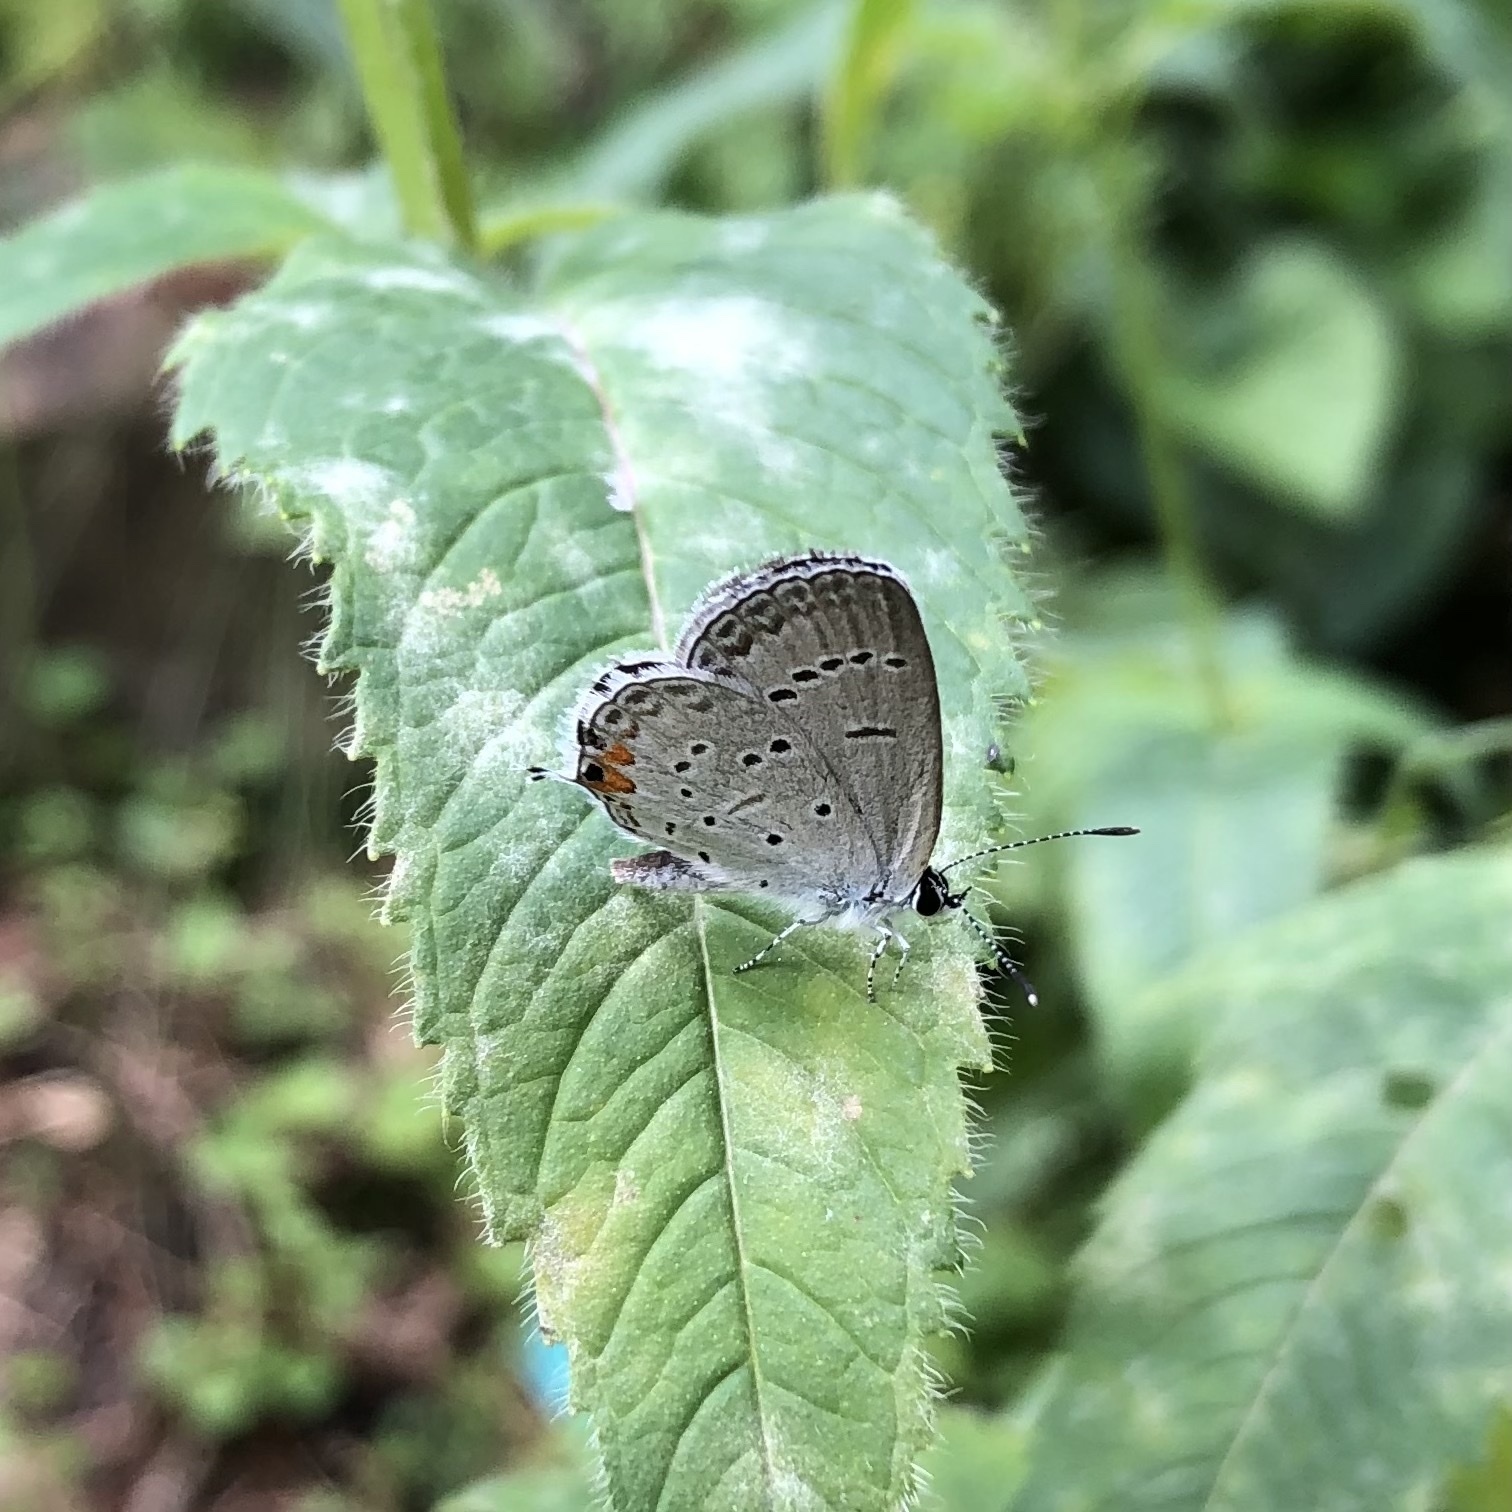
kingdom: Animalia
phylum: Arthropoda
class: Insecta
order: Lepidoptera
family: Lycaenidae
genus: Elkalyce
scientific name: Elkalyce comyntas
